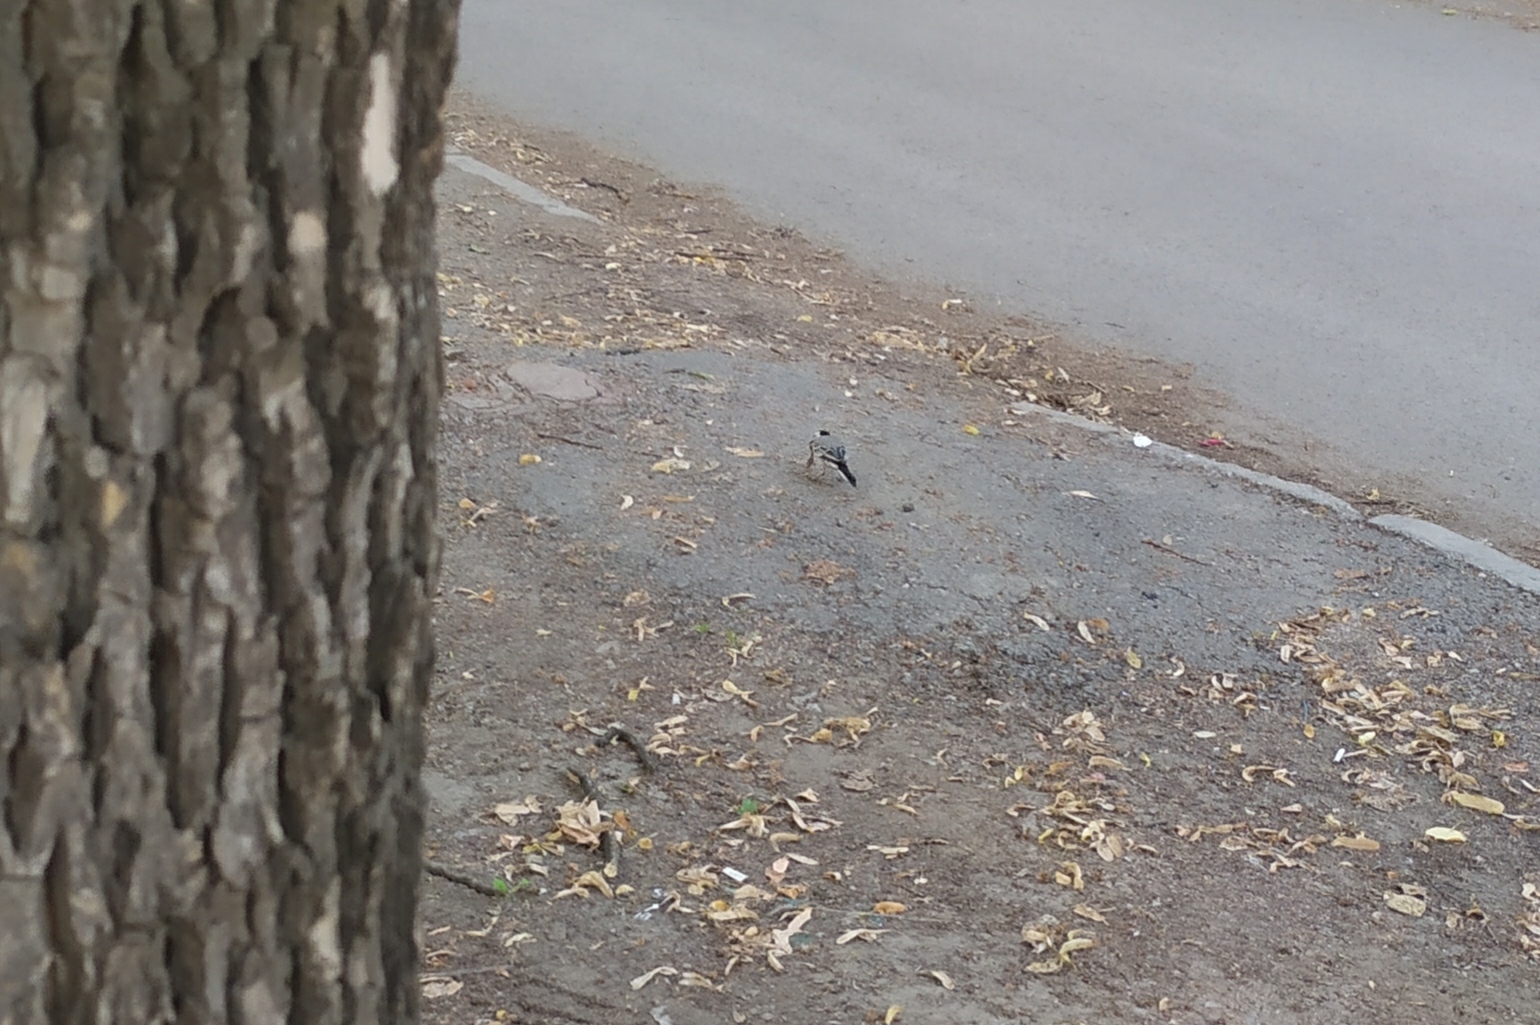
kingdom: Animalia
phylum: Chordata
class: Aves
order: Passeriformes
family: Motacillidae
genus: Motacilla
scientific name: Motacilla alba
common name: White wagtail
